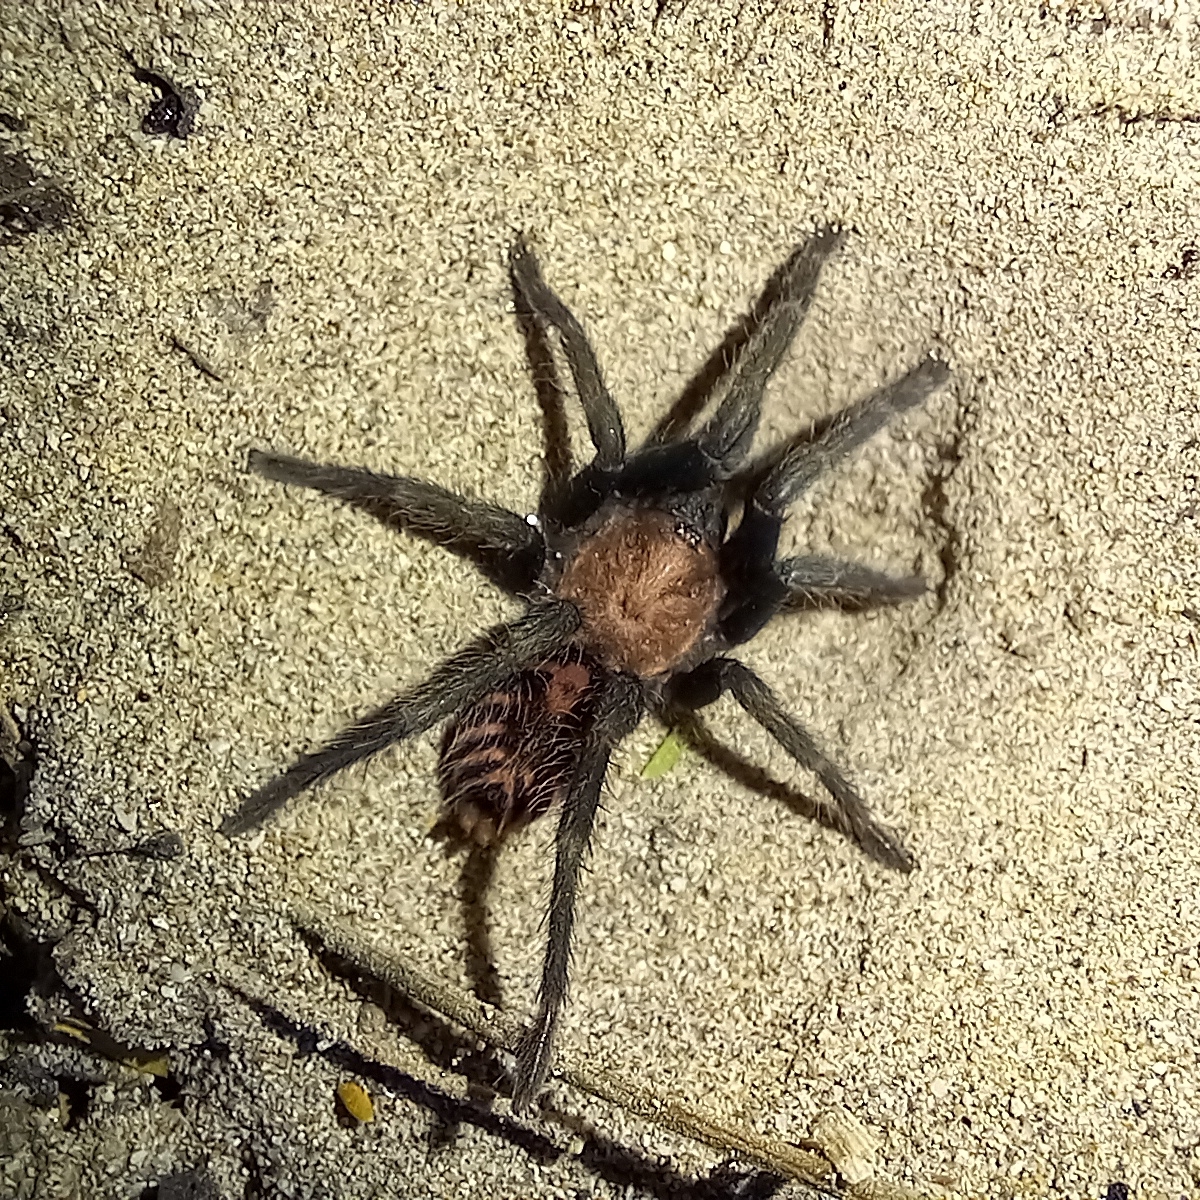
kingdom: Animalia
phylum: Arthropoda
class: Arachnida
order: Araneae
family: Theraphosidae
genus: Davus
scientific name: Davus pentaloris
